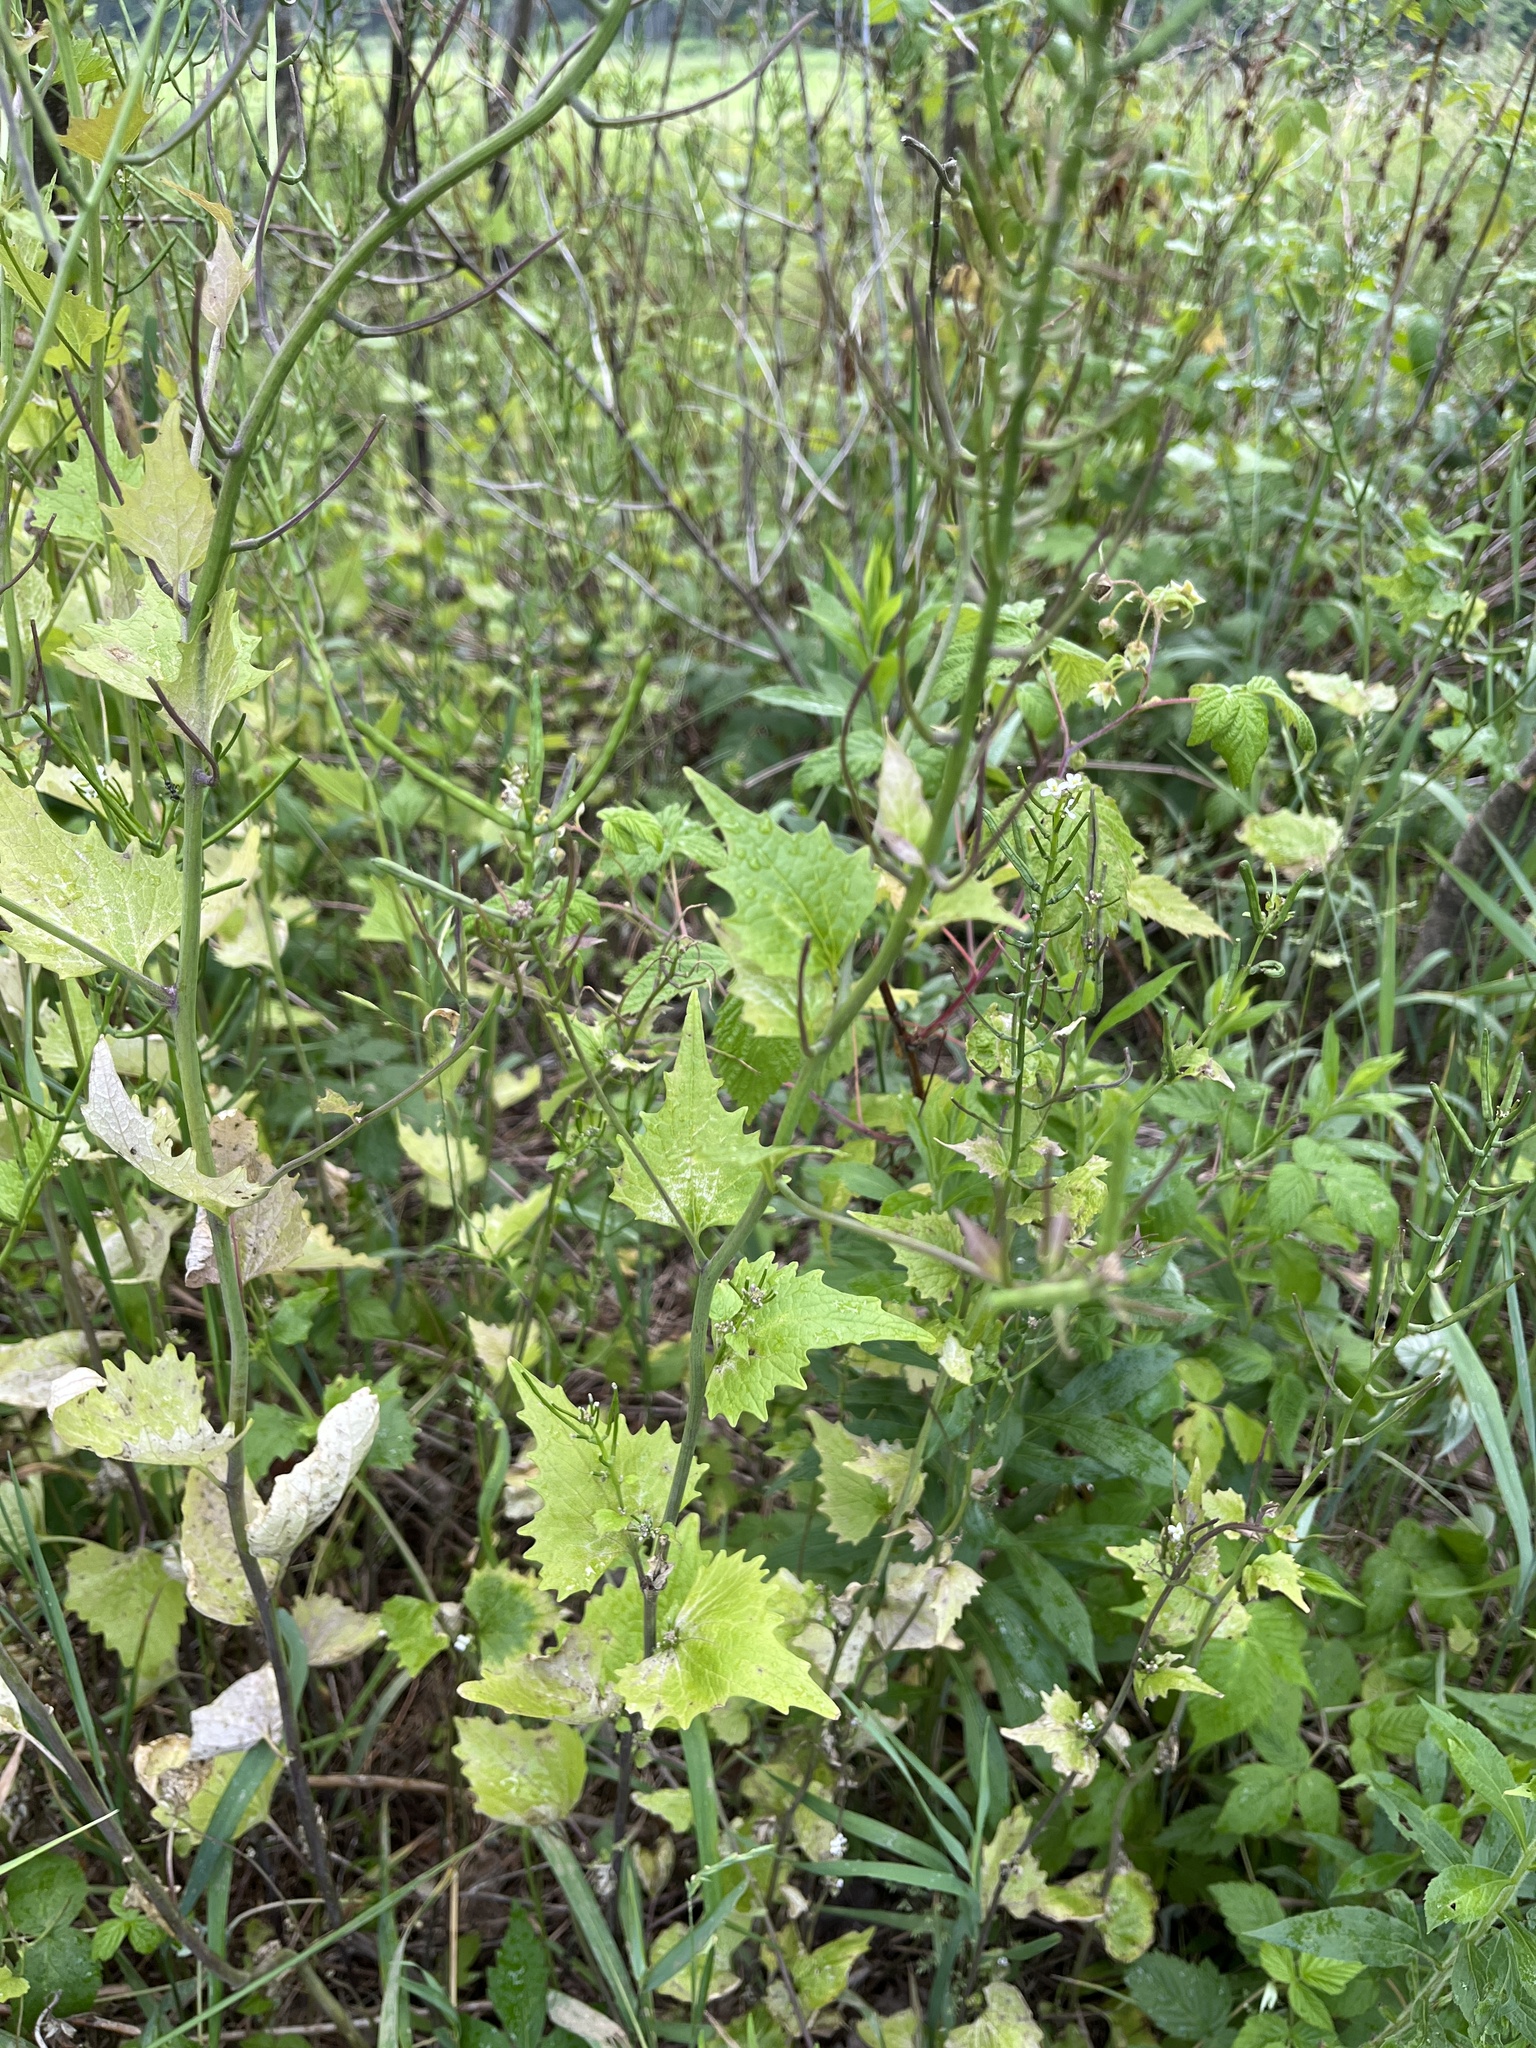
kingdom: Plantae
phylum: Tracheophyta
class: Magnoliopsida
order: Brassicales
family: Brassicaceae
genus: Alliaria
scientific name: Alliaria petiolata
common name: Garlic mustard
